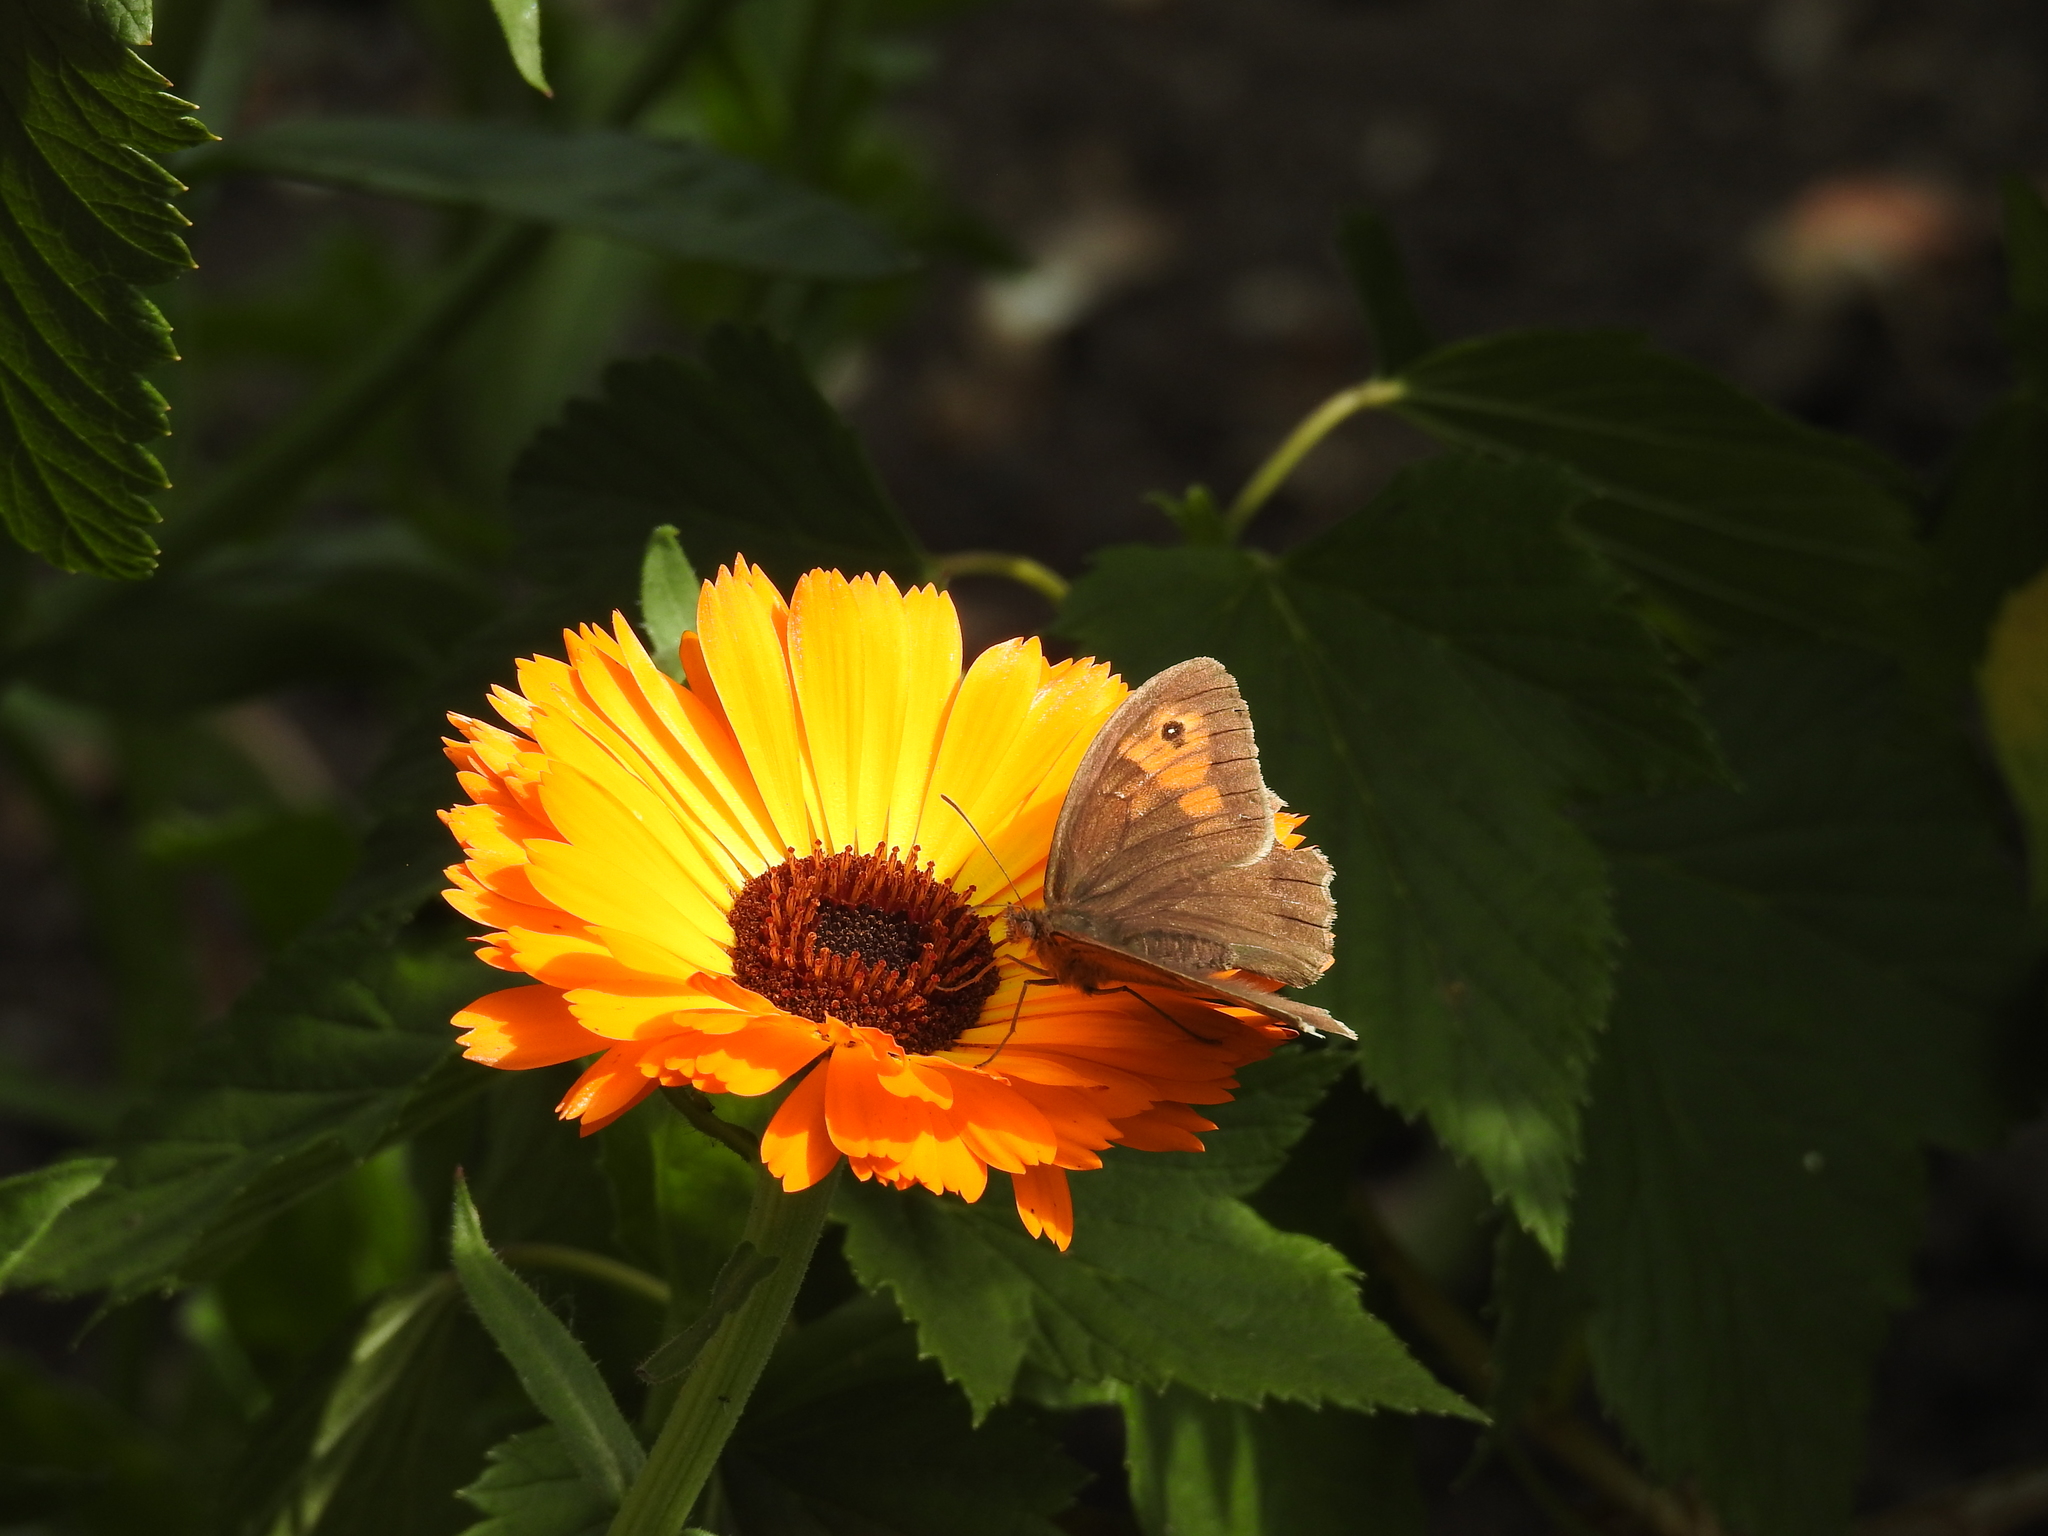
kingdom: Animalia
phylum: Arthropoda
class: Insecta
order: Lepidoptera
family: Nymphalidae
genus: Maniola
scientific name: Maniola jurtina
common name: Meadow brown
